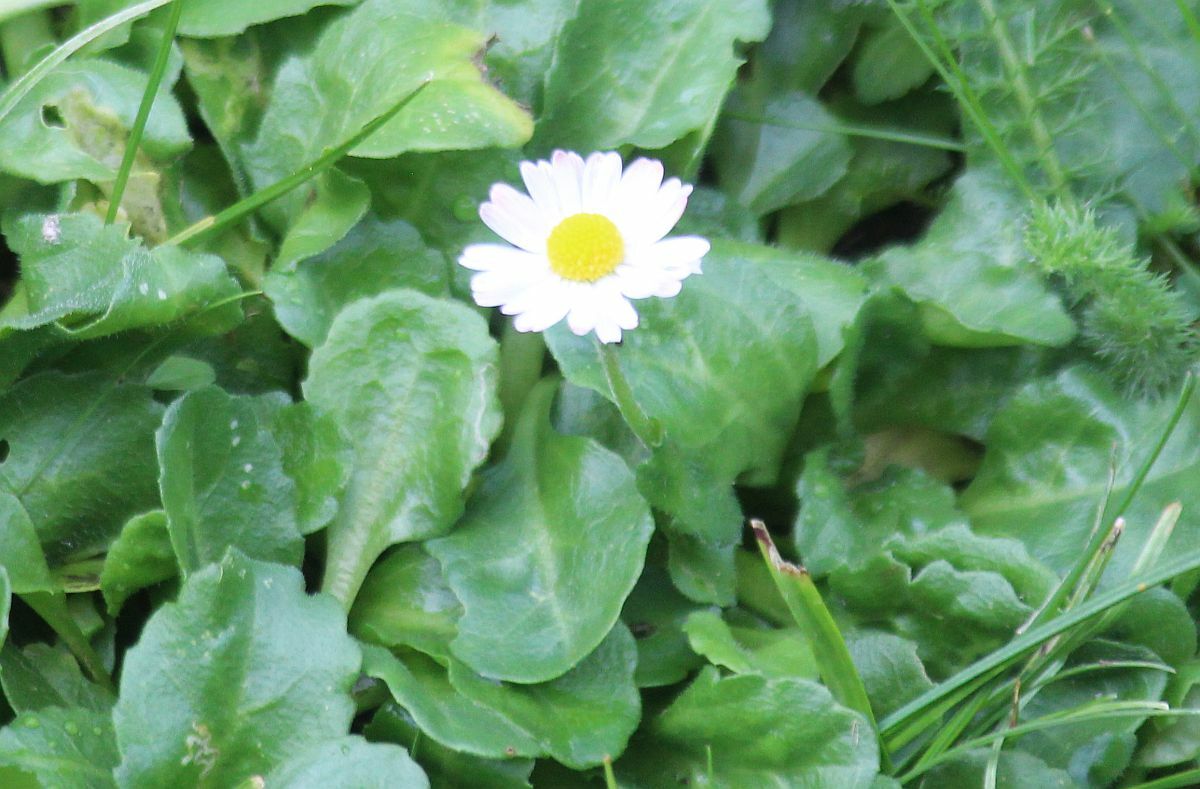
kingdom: Plantae
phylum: Tracheophyta
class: Magnoliopsida
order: Asterales
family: Asteraceae
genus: Bellis
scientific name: Bellis perennis
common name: Lawndaisy
